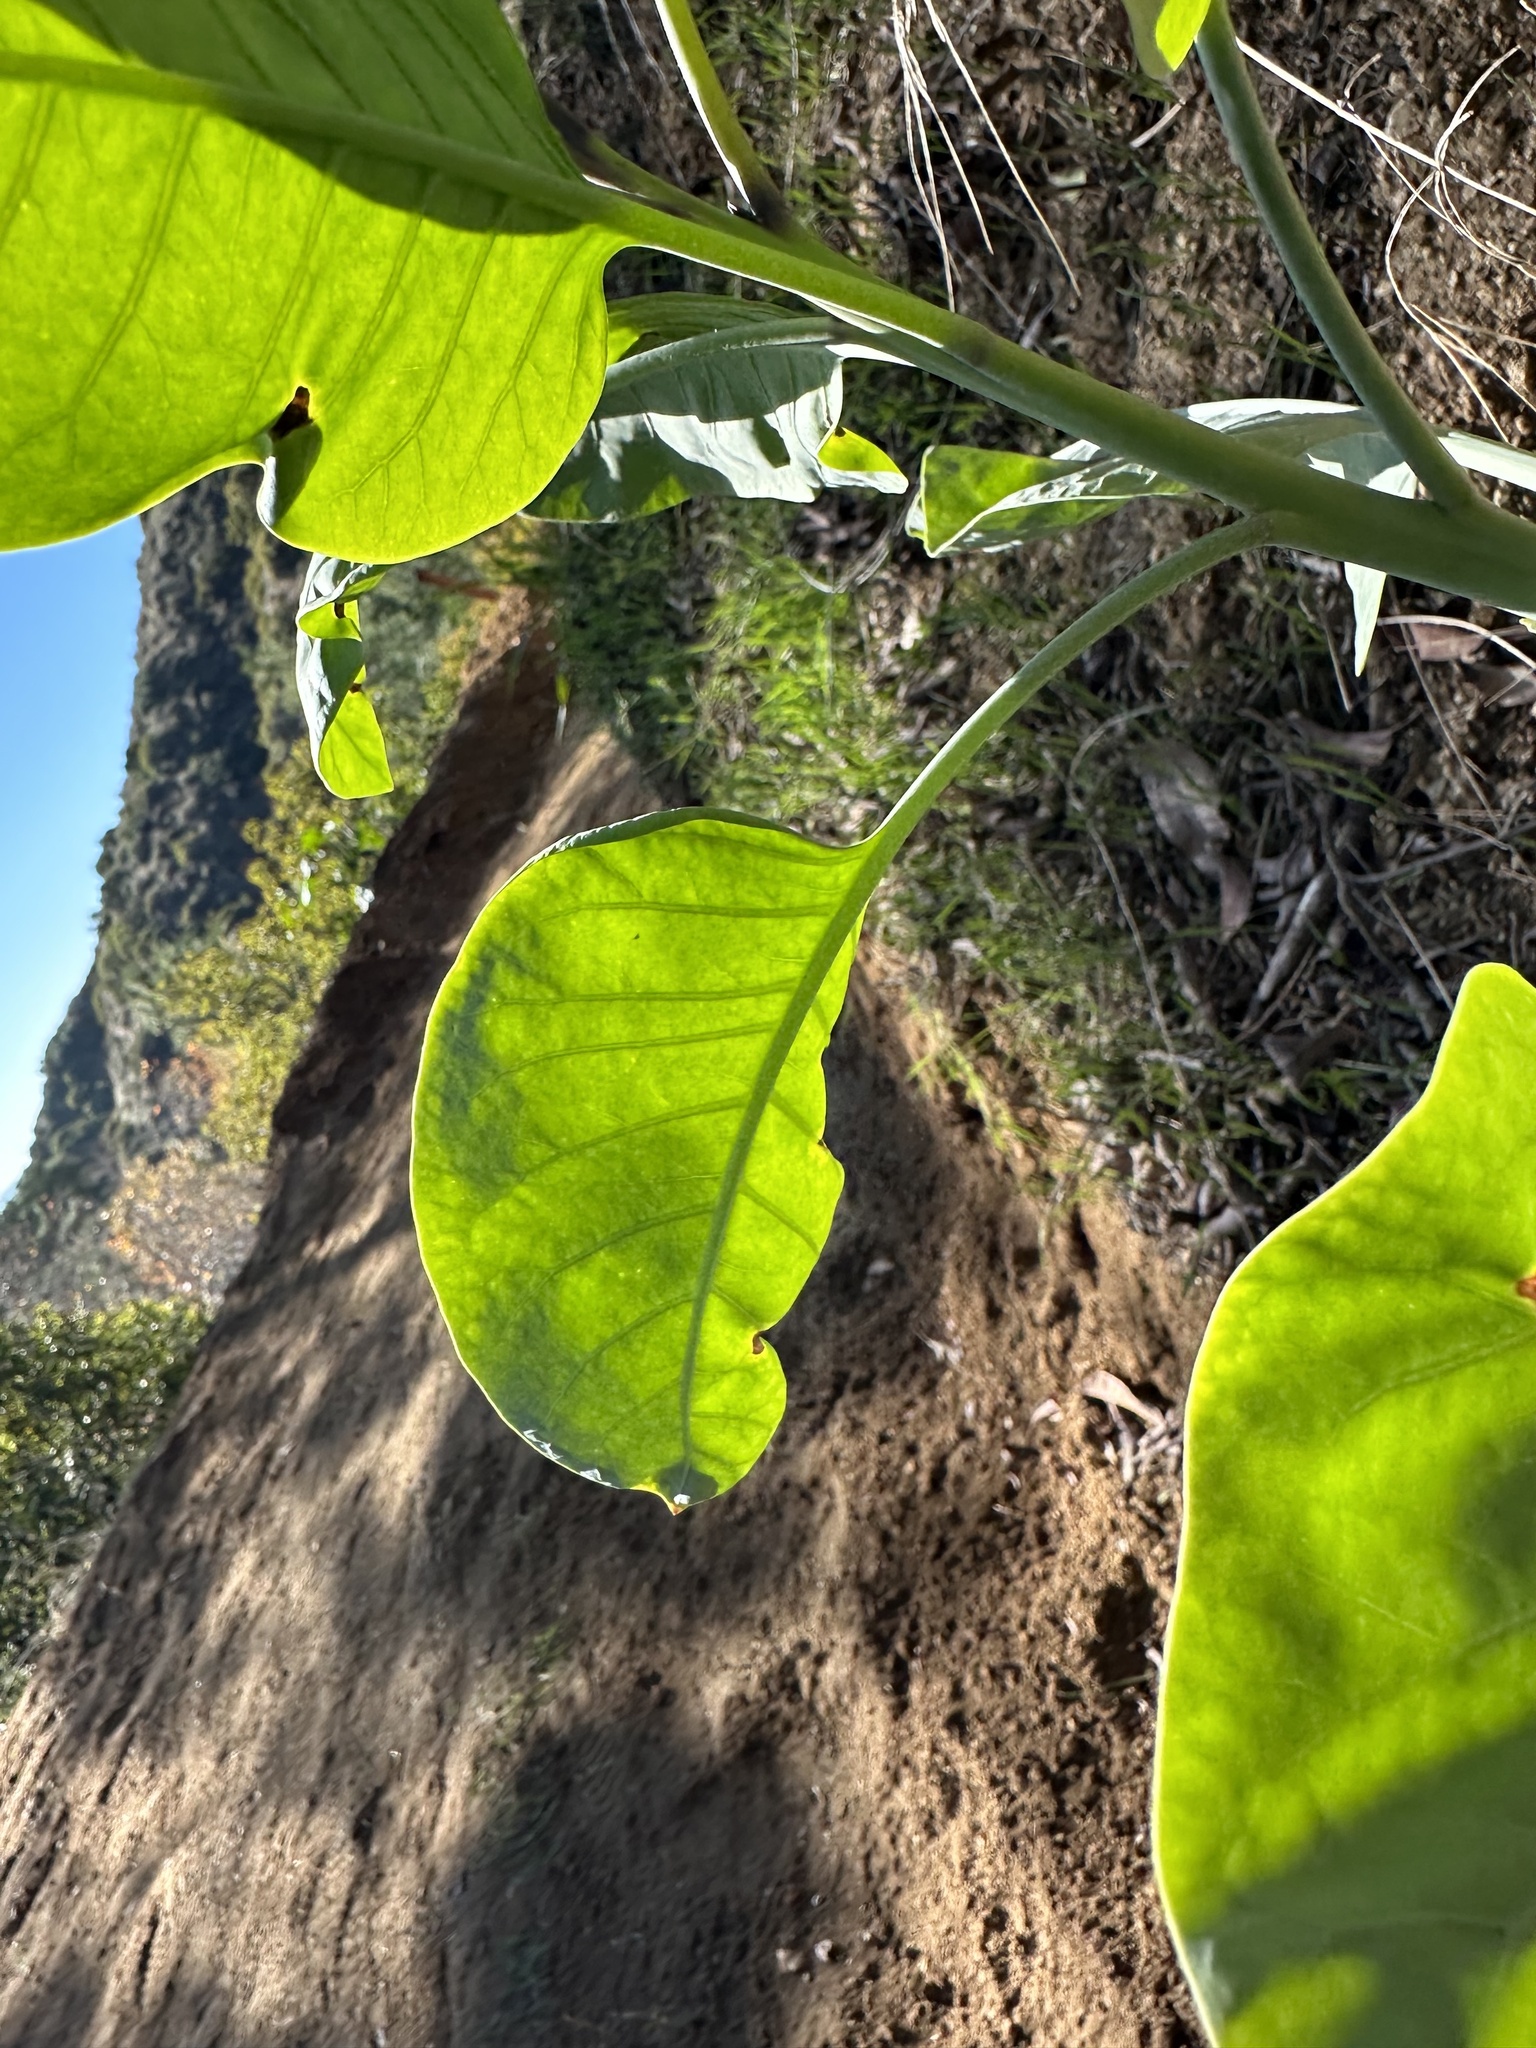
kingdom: Plantae
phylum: Tracheophyta
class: Magnoliopsida
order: Solanales
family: Solanaceae
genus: Nicotiana
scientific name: Nicotiana glauca
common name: Tree tobacco
